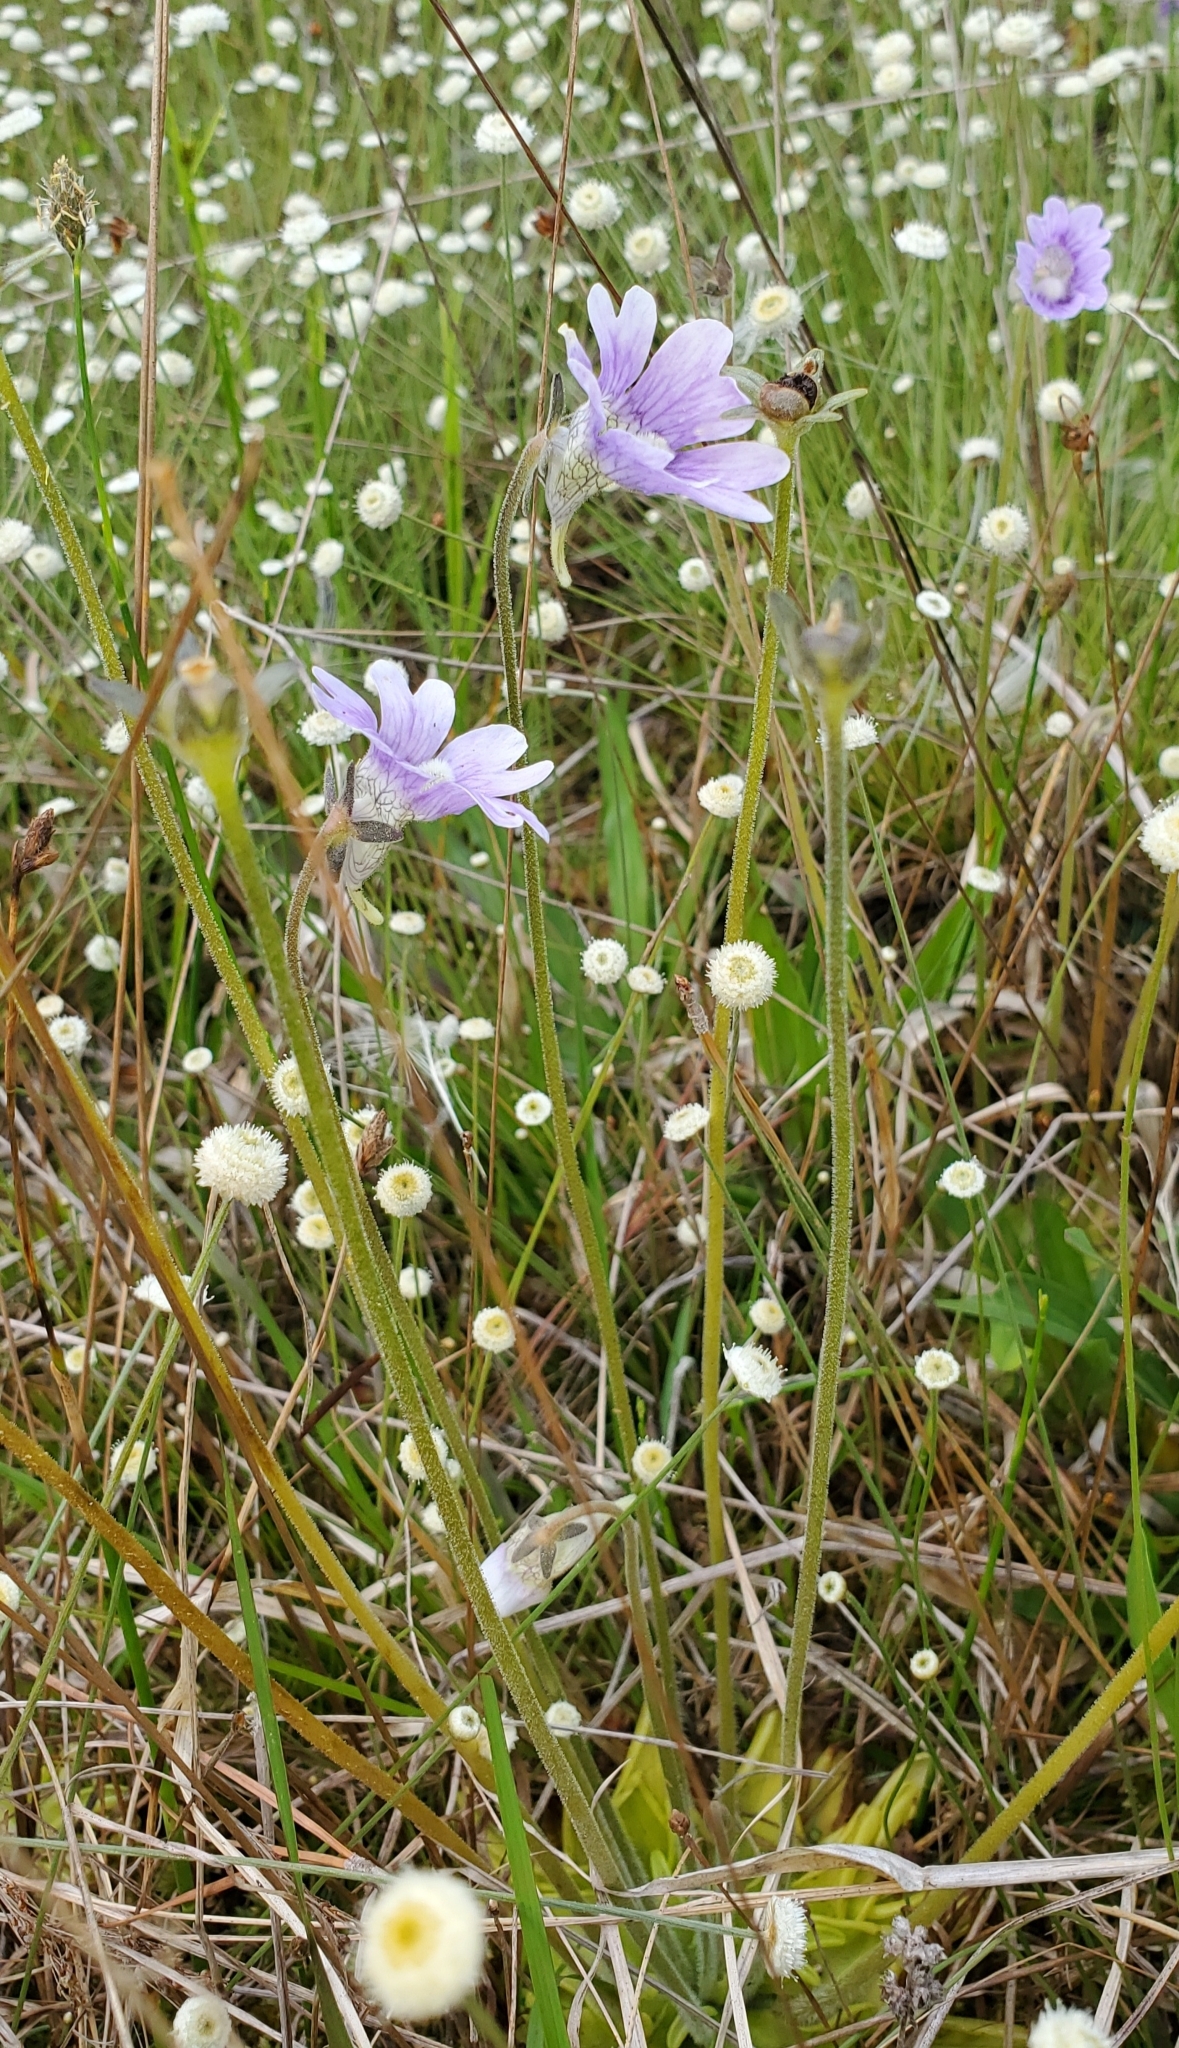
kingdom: Plantae
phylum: Tracheophyta
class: Magnoliopsida
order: Lamiales
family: Lentibulariaceae
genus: Pinguicula
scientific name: Pinguicula caerulea
